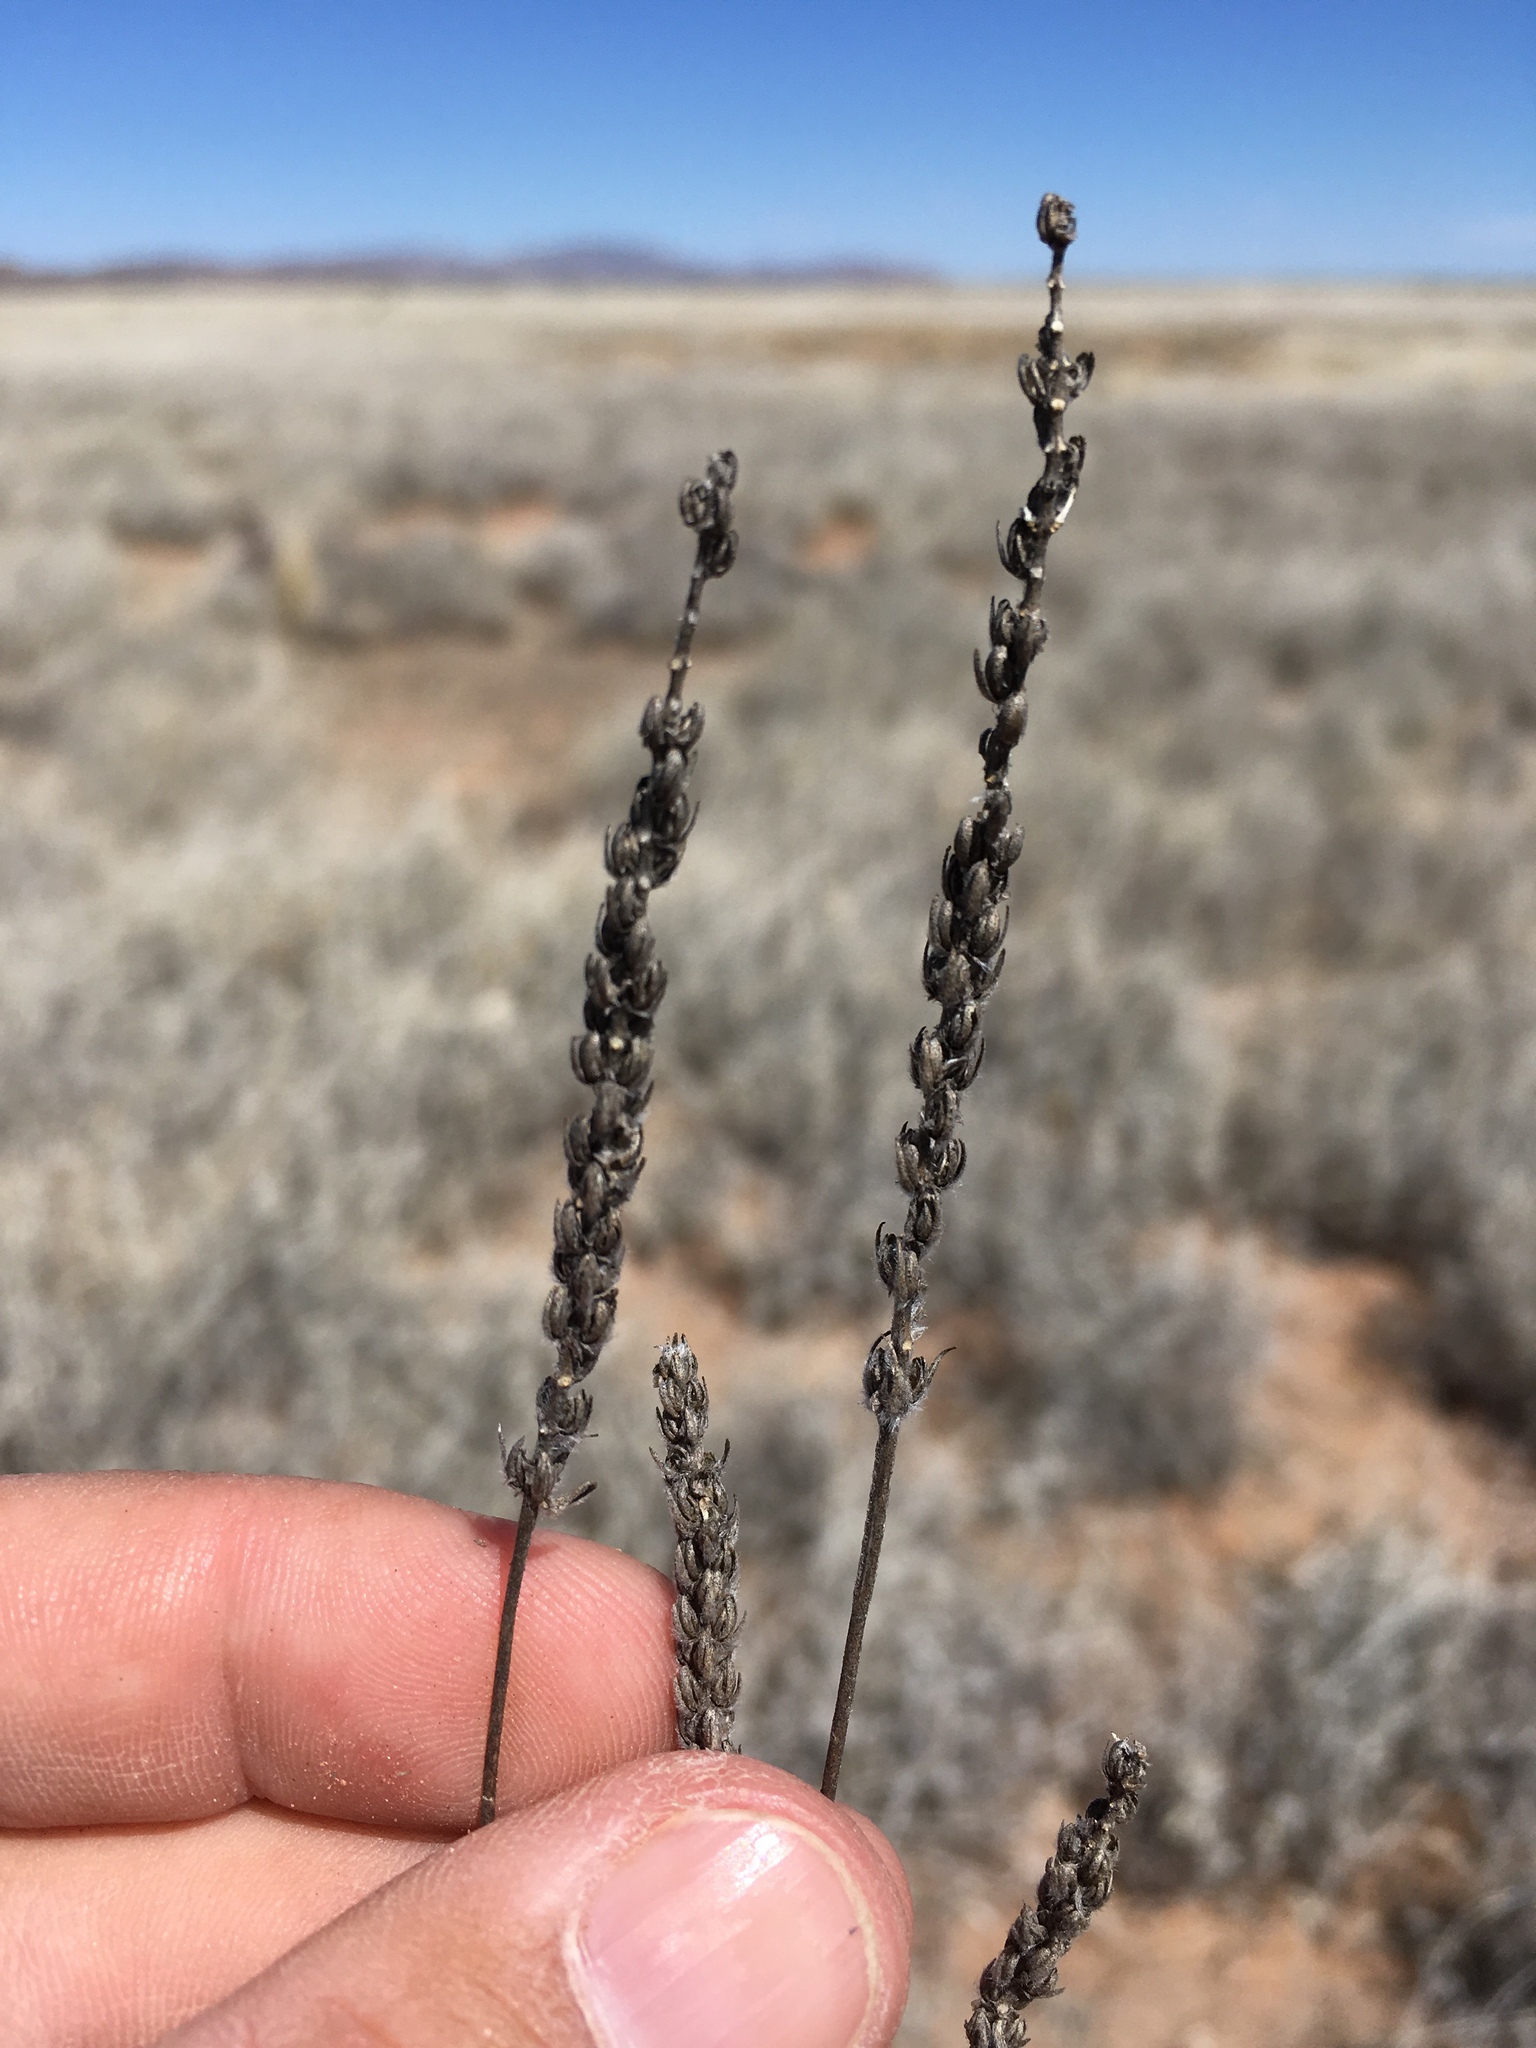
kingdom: Plantae
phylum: Tracheophyta
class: Magnoliopsida
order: Lamiales
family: Plantaginaceae
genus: Plantago
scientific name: Plantago patagonica
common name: Patagonia indian-wheat
